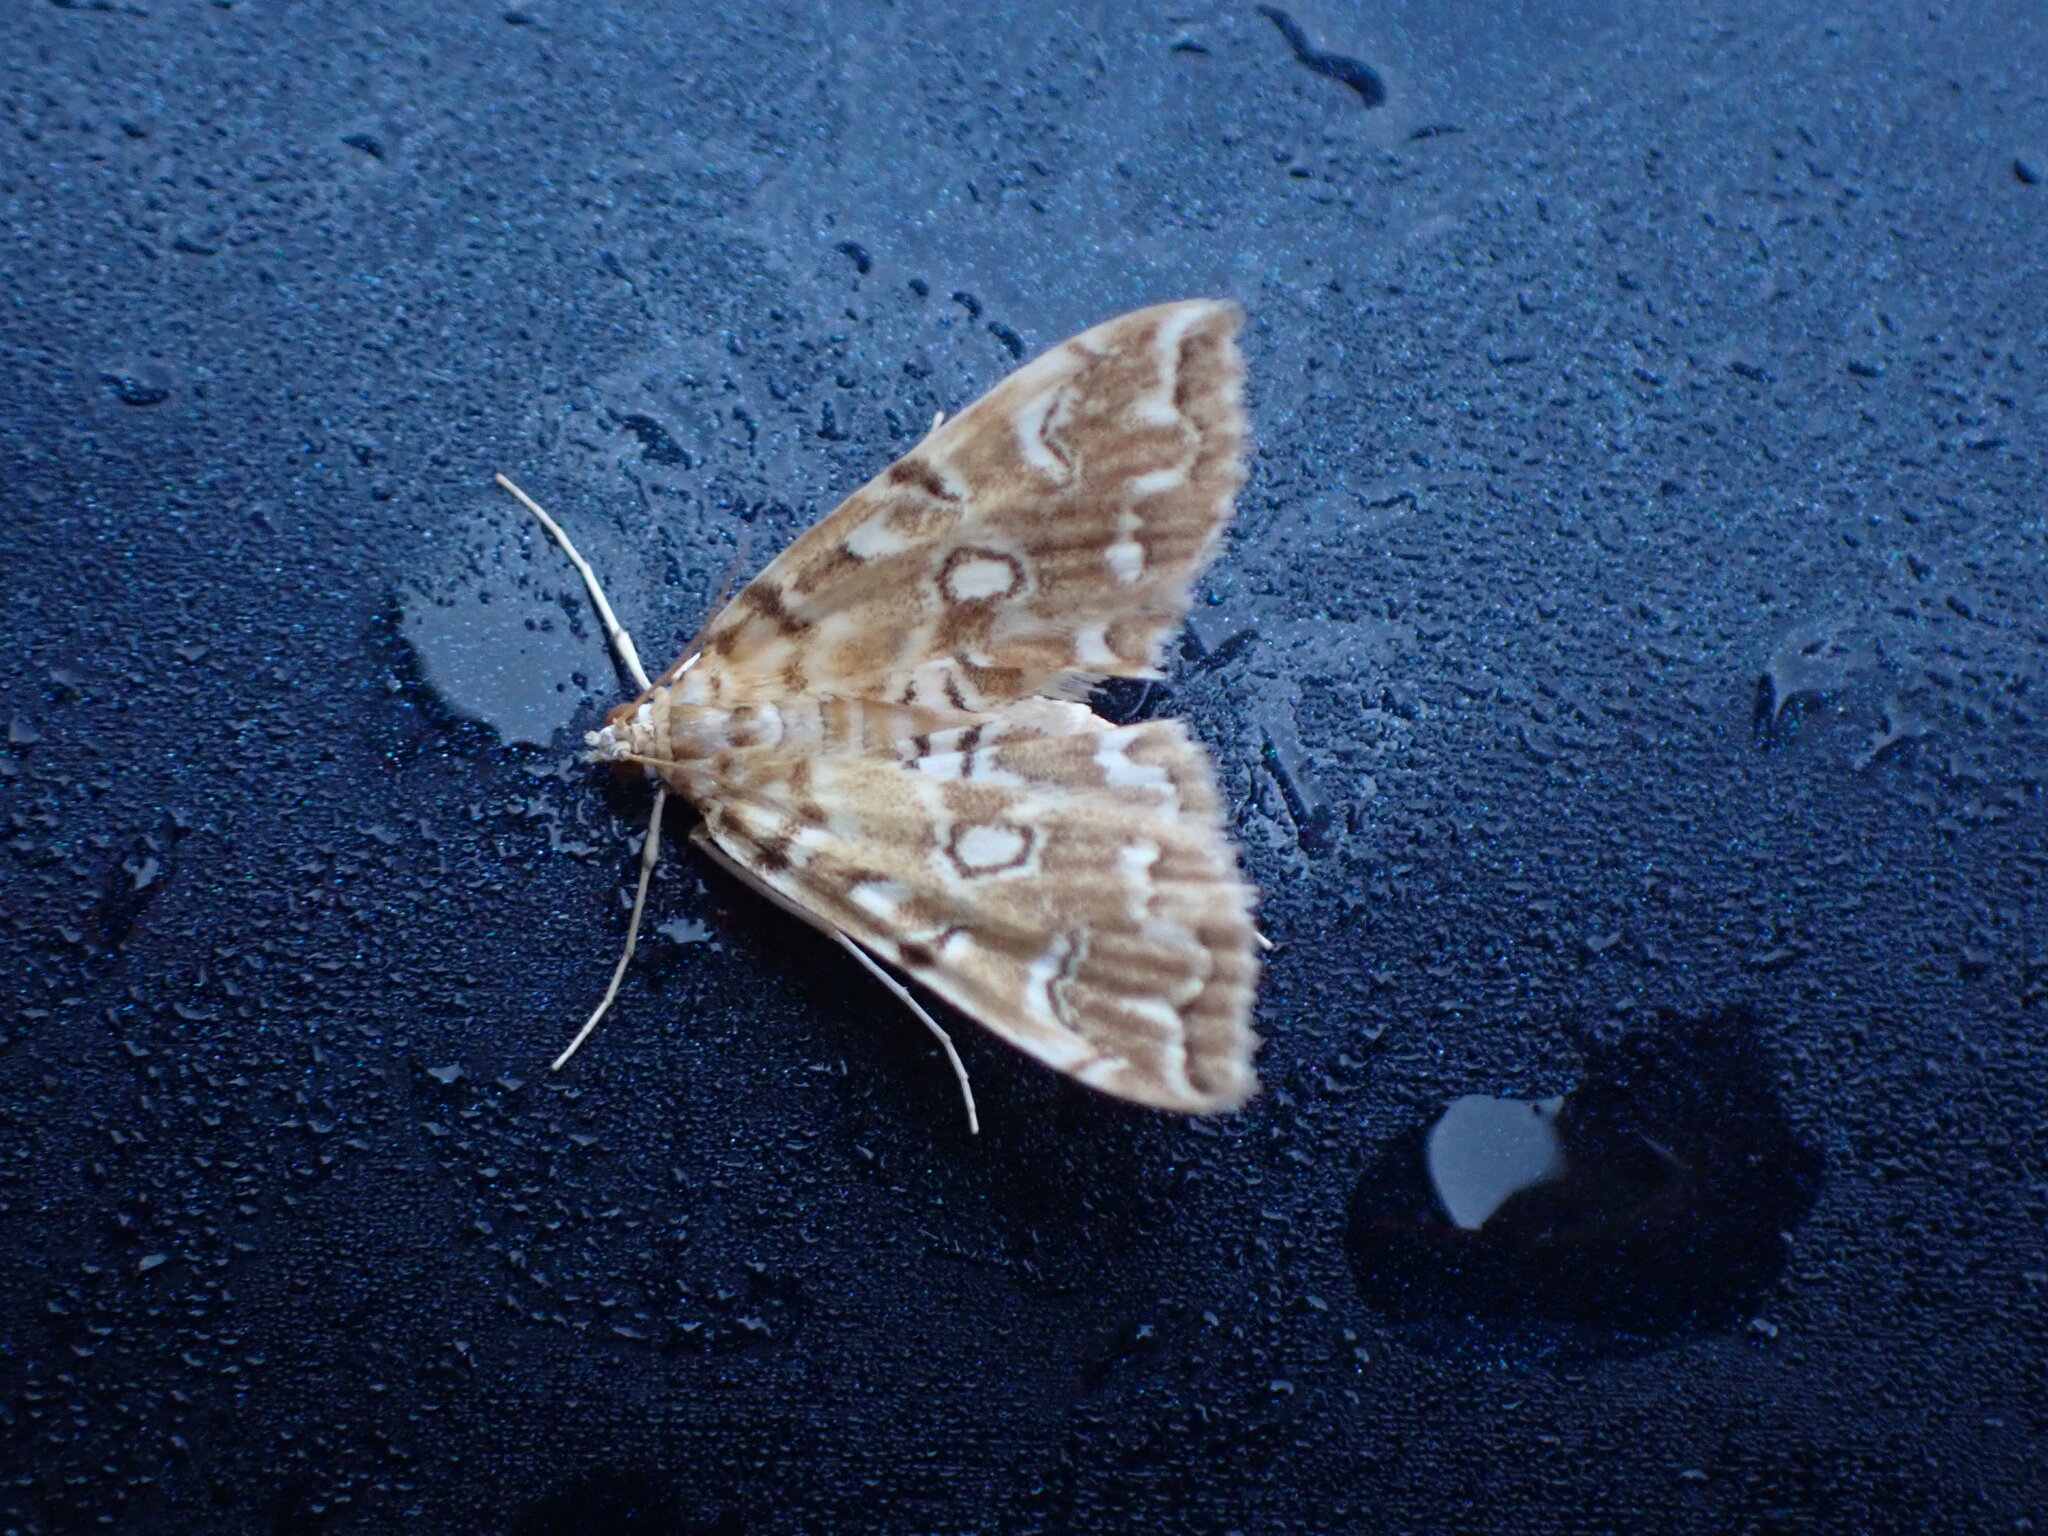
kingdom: Animalia
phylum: Arthropoda
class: Insecta
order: Lepidoptera
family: Crambidae
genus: Elophila
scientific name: Elophila icciusalis
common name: Pondside pyralid moth
